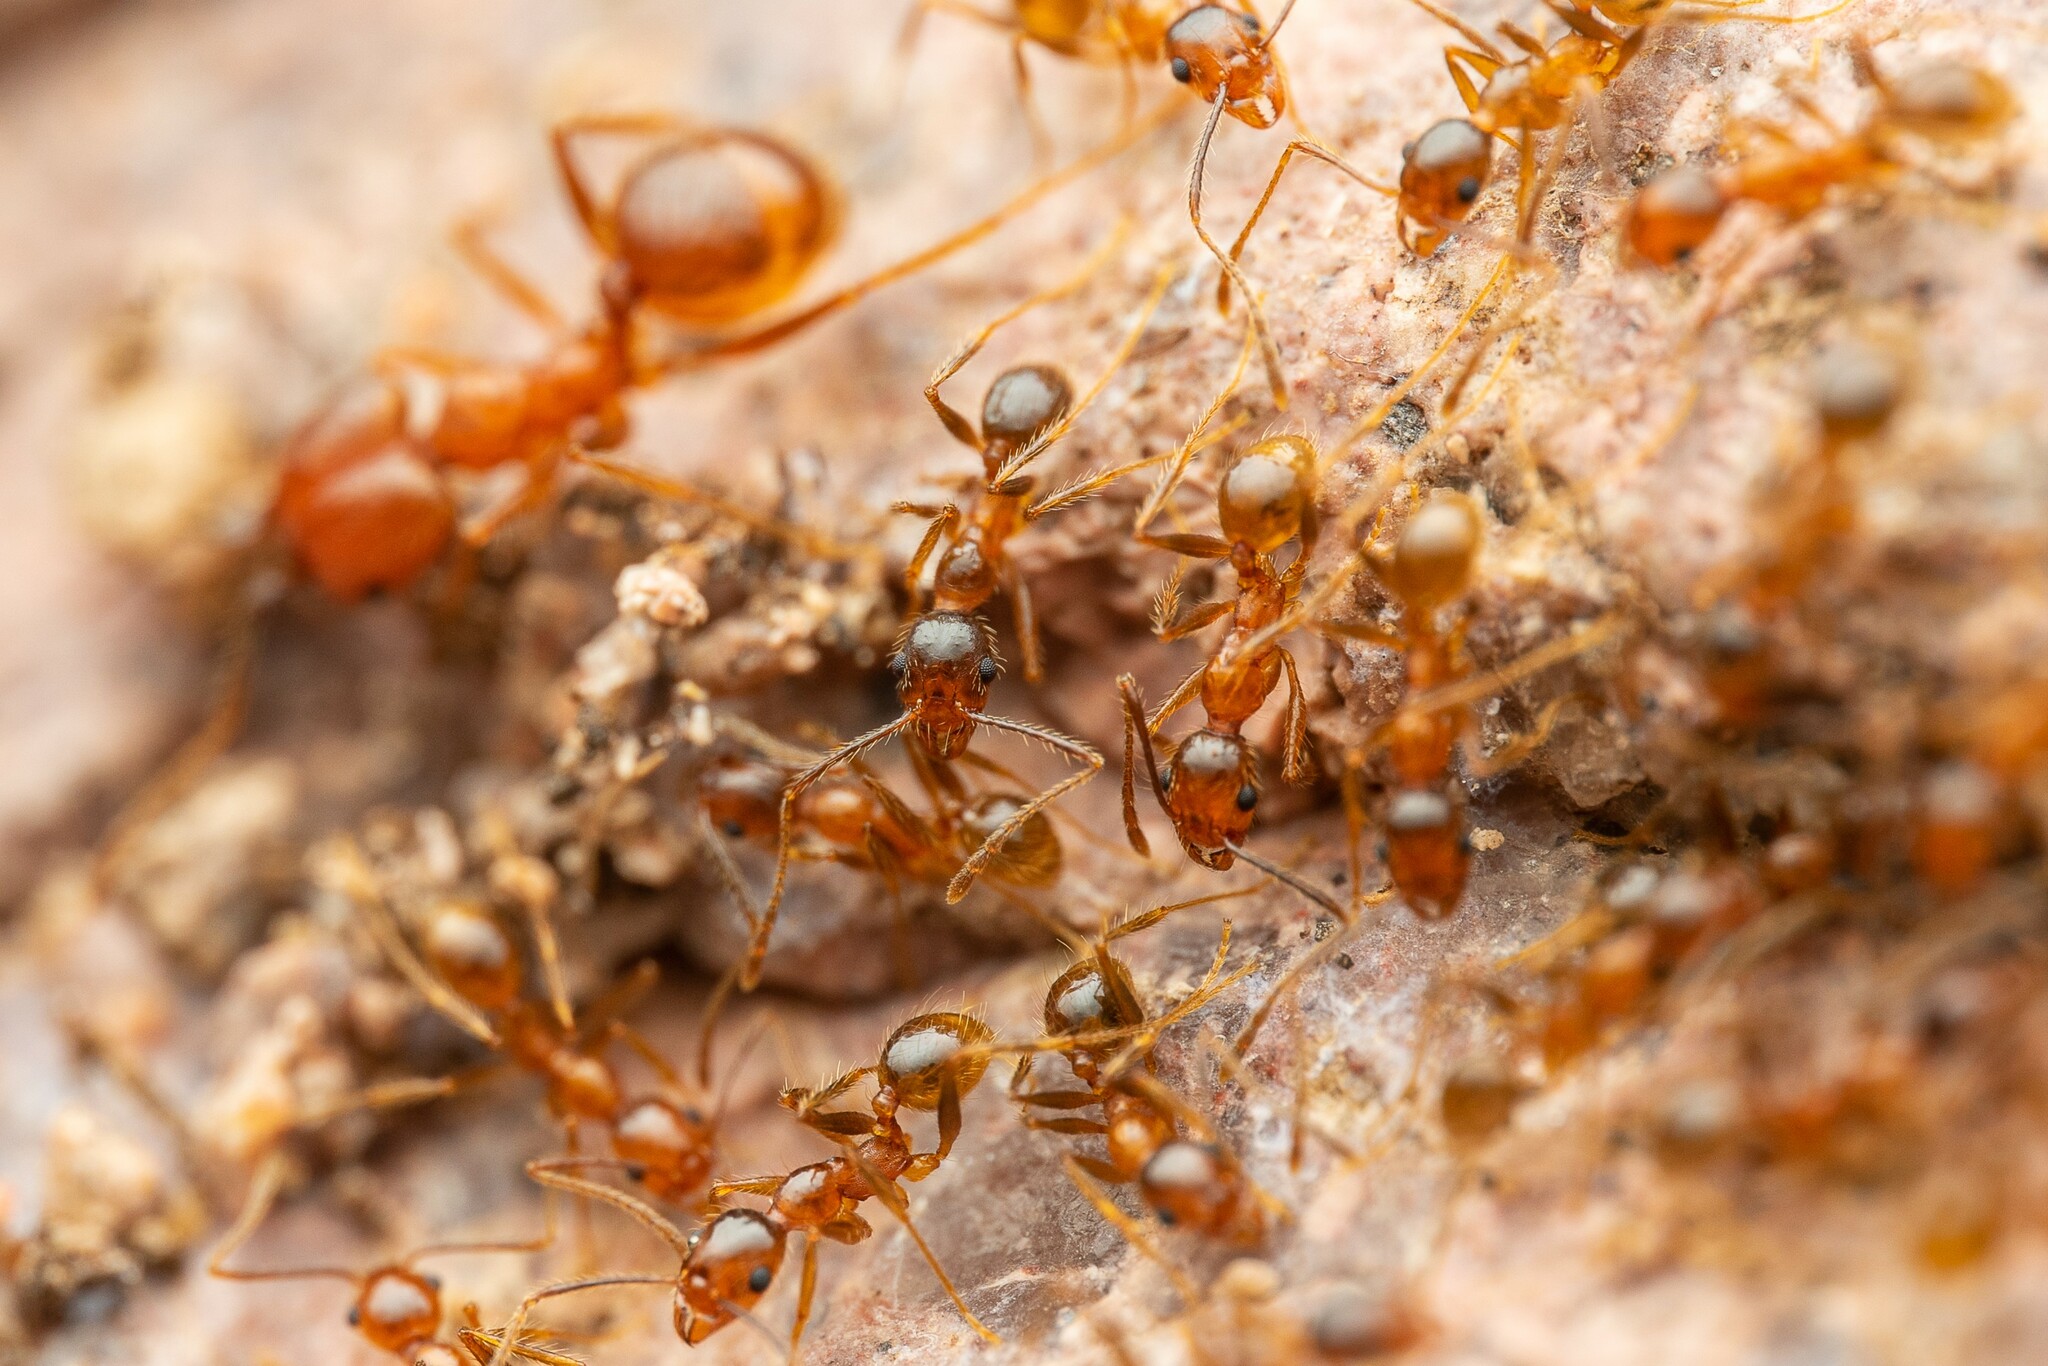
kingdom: Animalia
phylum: Arthropoda
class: Insecta
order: Hymenoptera
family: Formicidae
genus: Pheidole
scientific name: Pheidole hyatti
